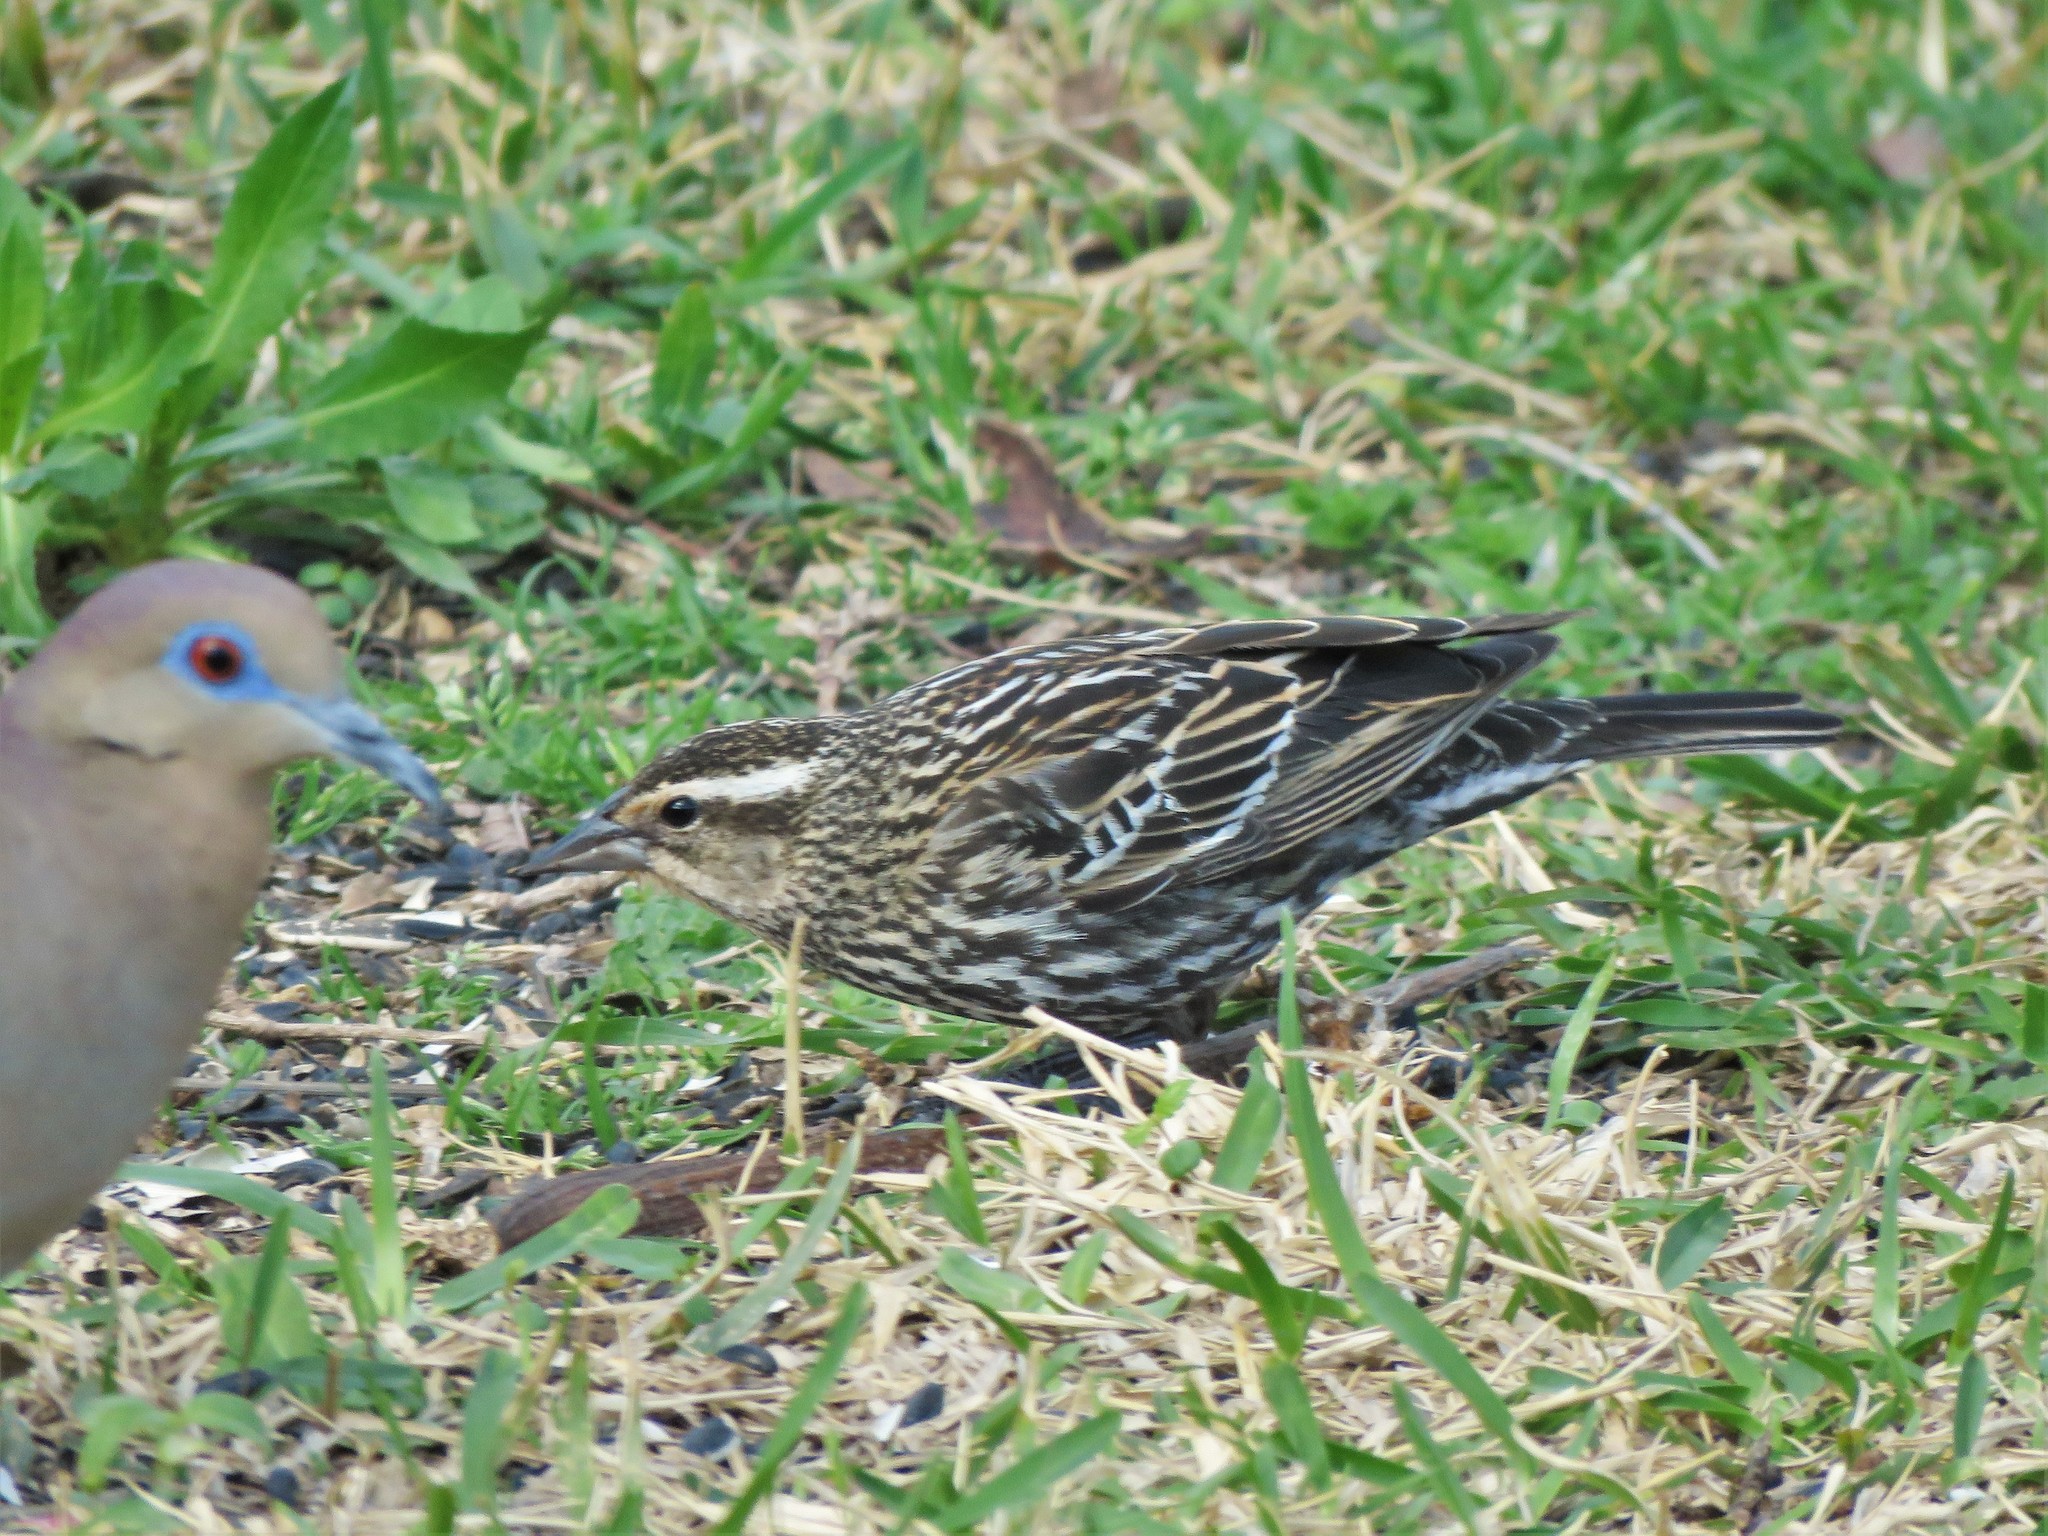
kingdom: Animalia
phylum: Chordata
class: Aves
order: Passeriformes
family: Icteridae
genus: Agelaius
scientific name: Agelaius phoeniceus
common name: Red-winged blackbird
